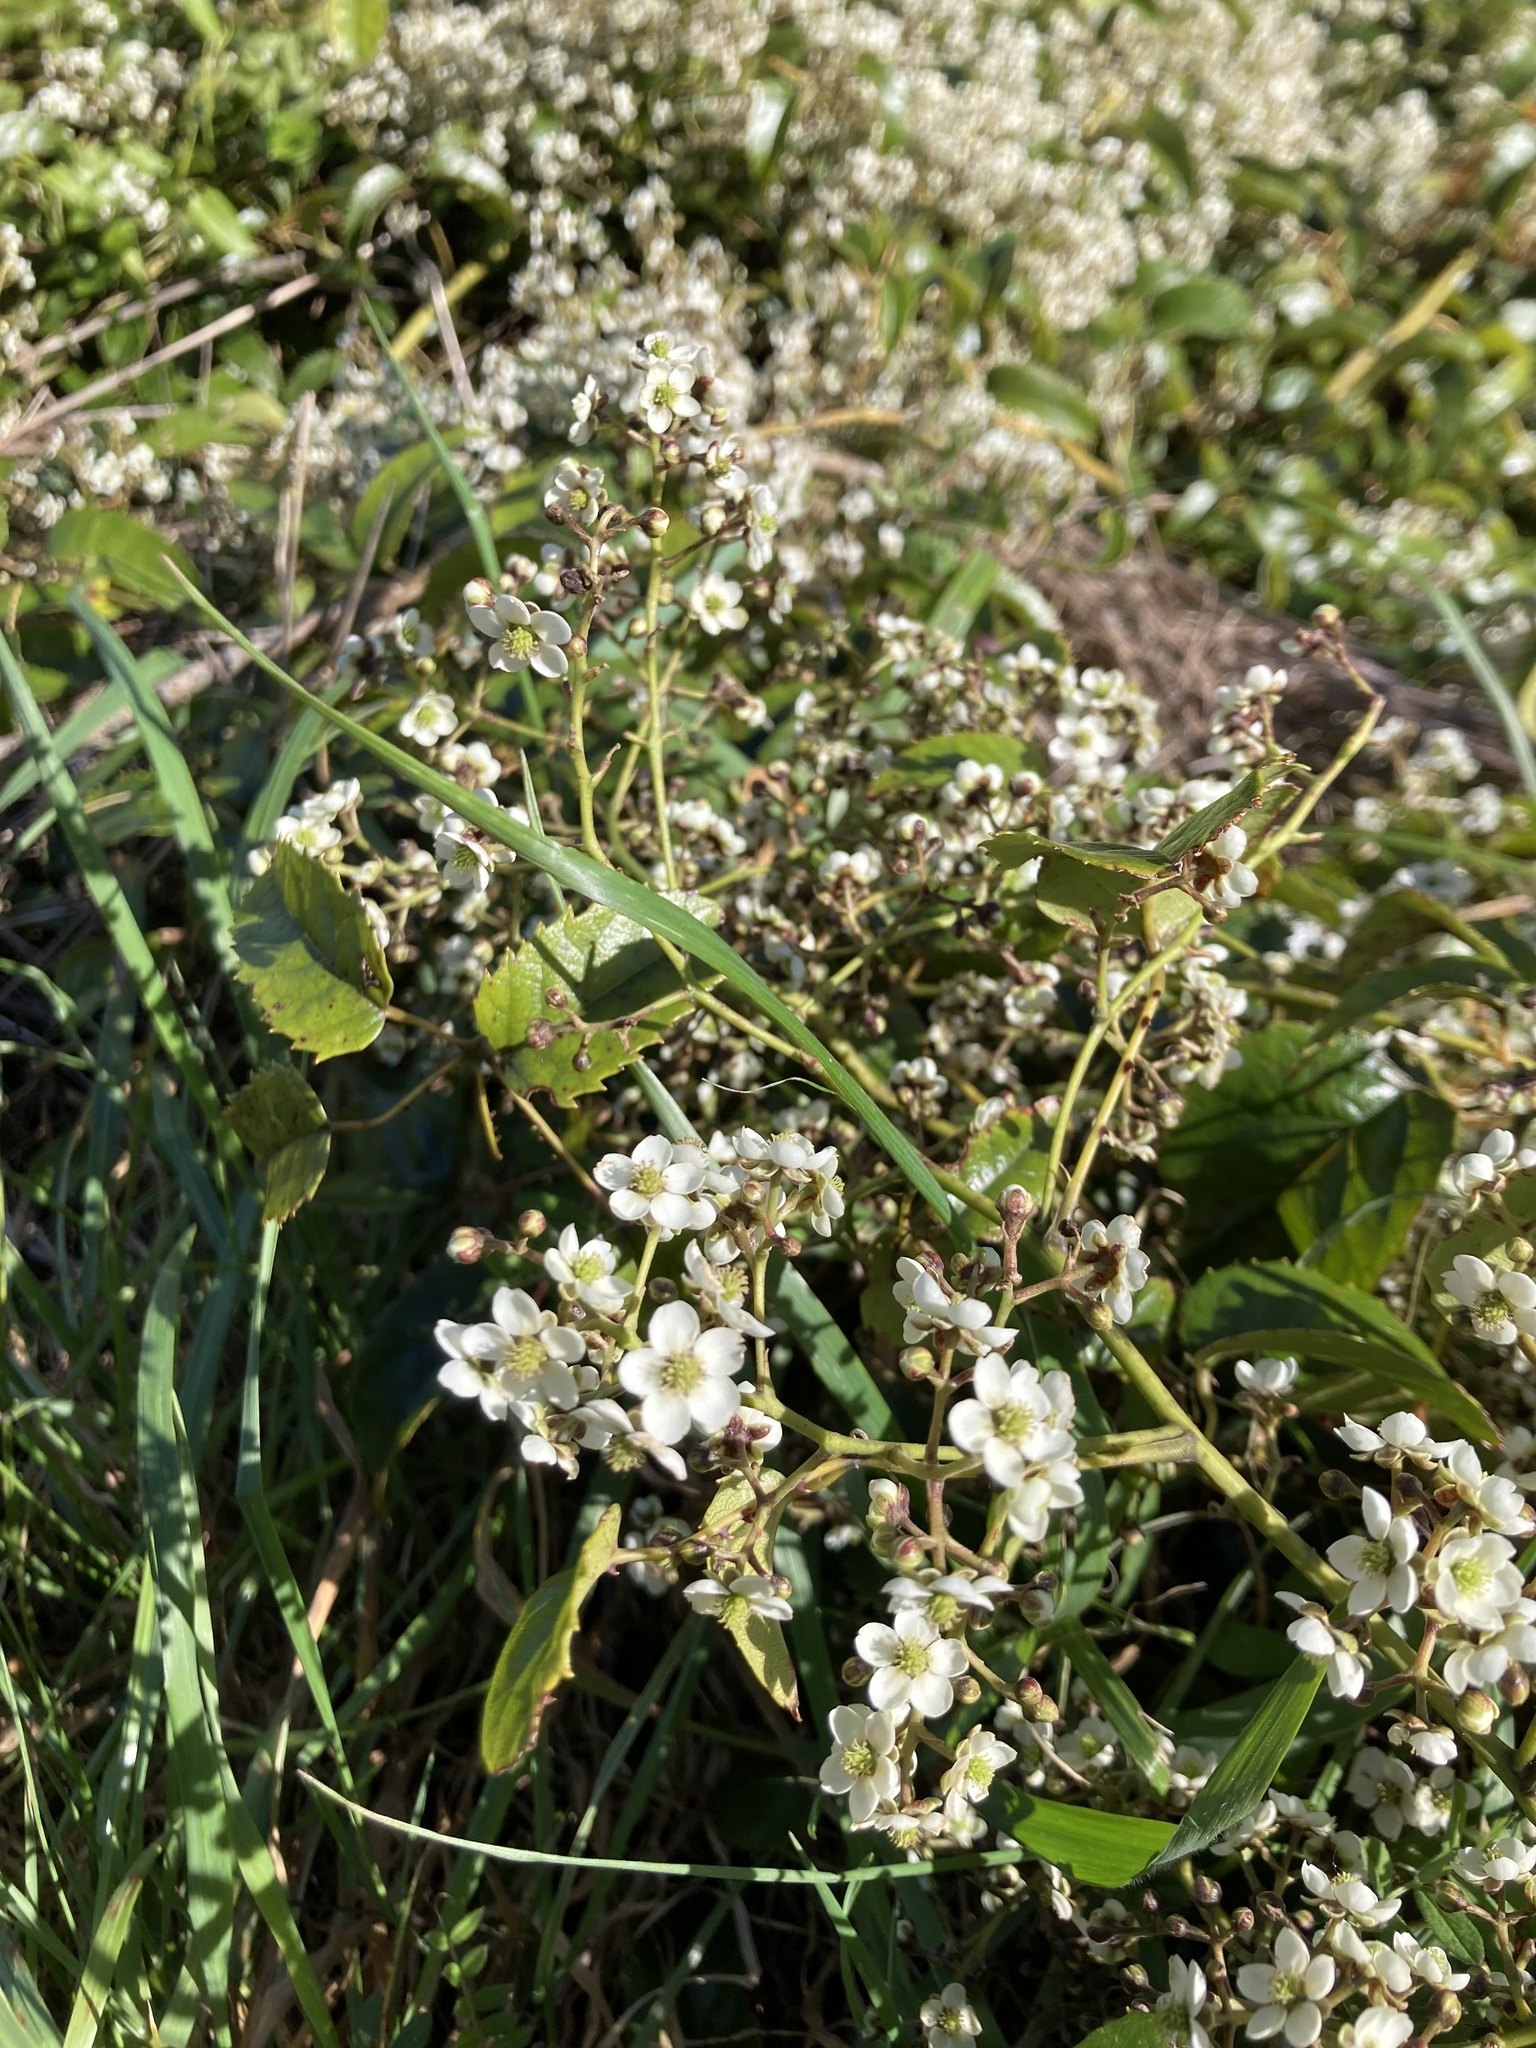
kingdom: Plantae
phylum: Tracheophyta
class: Magnoliopsida
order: Rosales
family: Rosaceae
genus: Rubus
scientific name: Rubus cissoides
